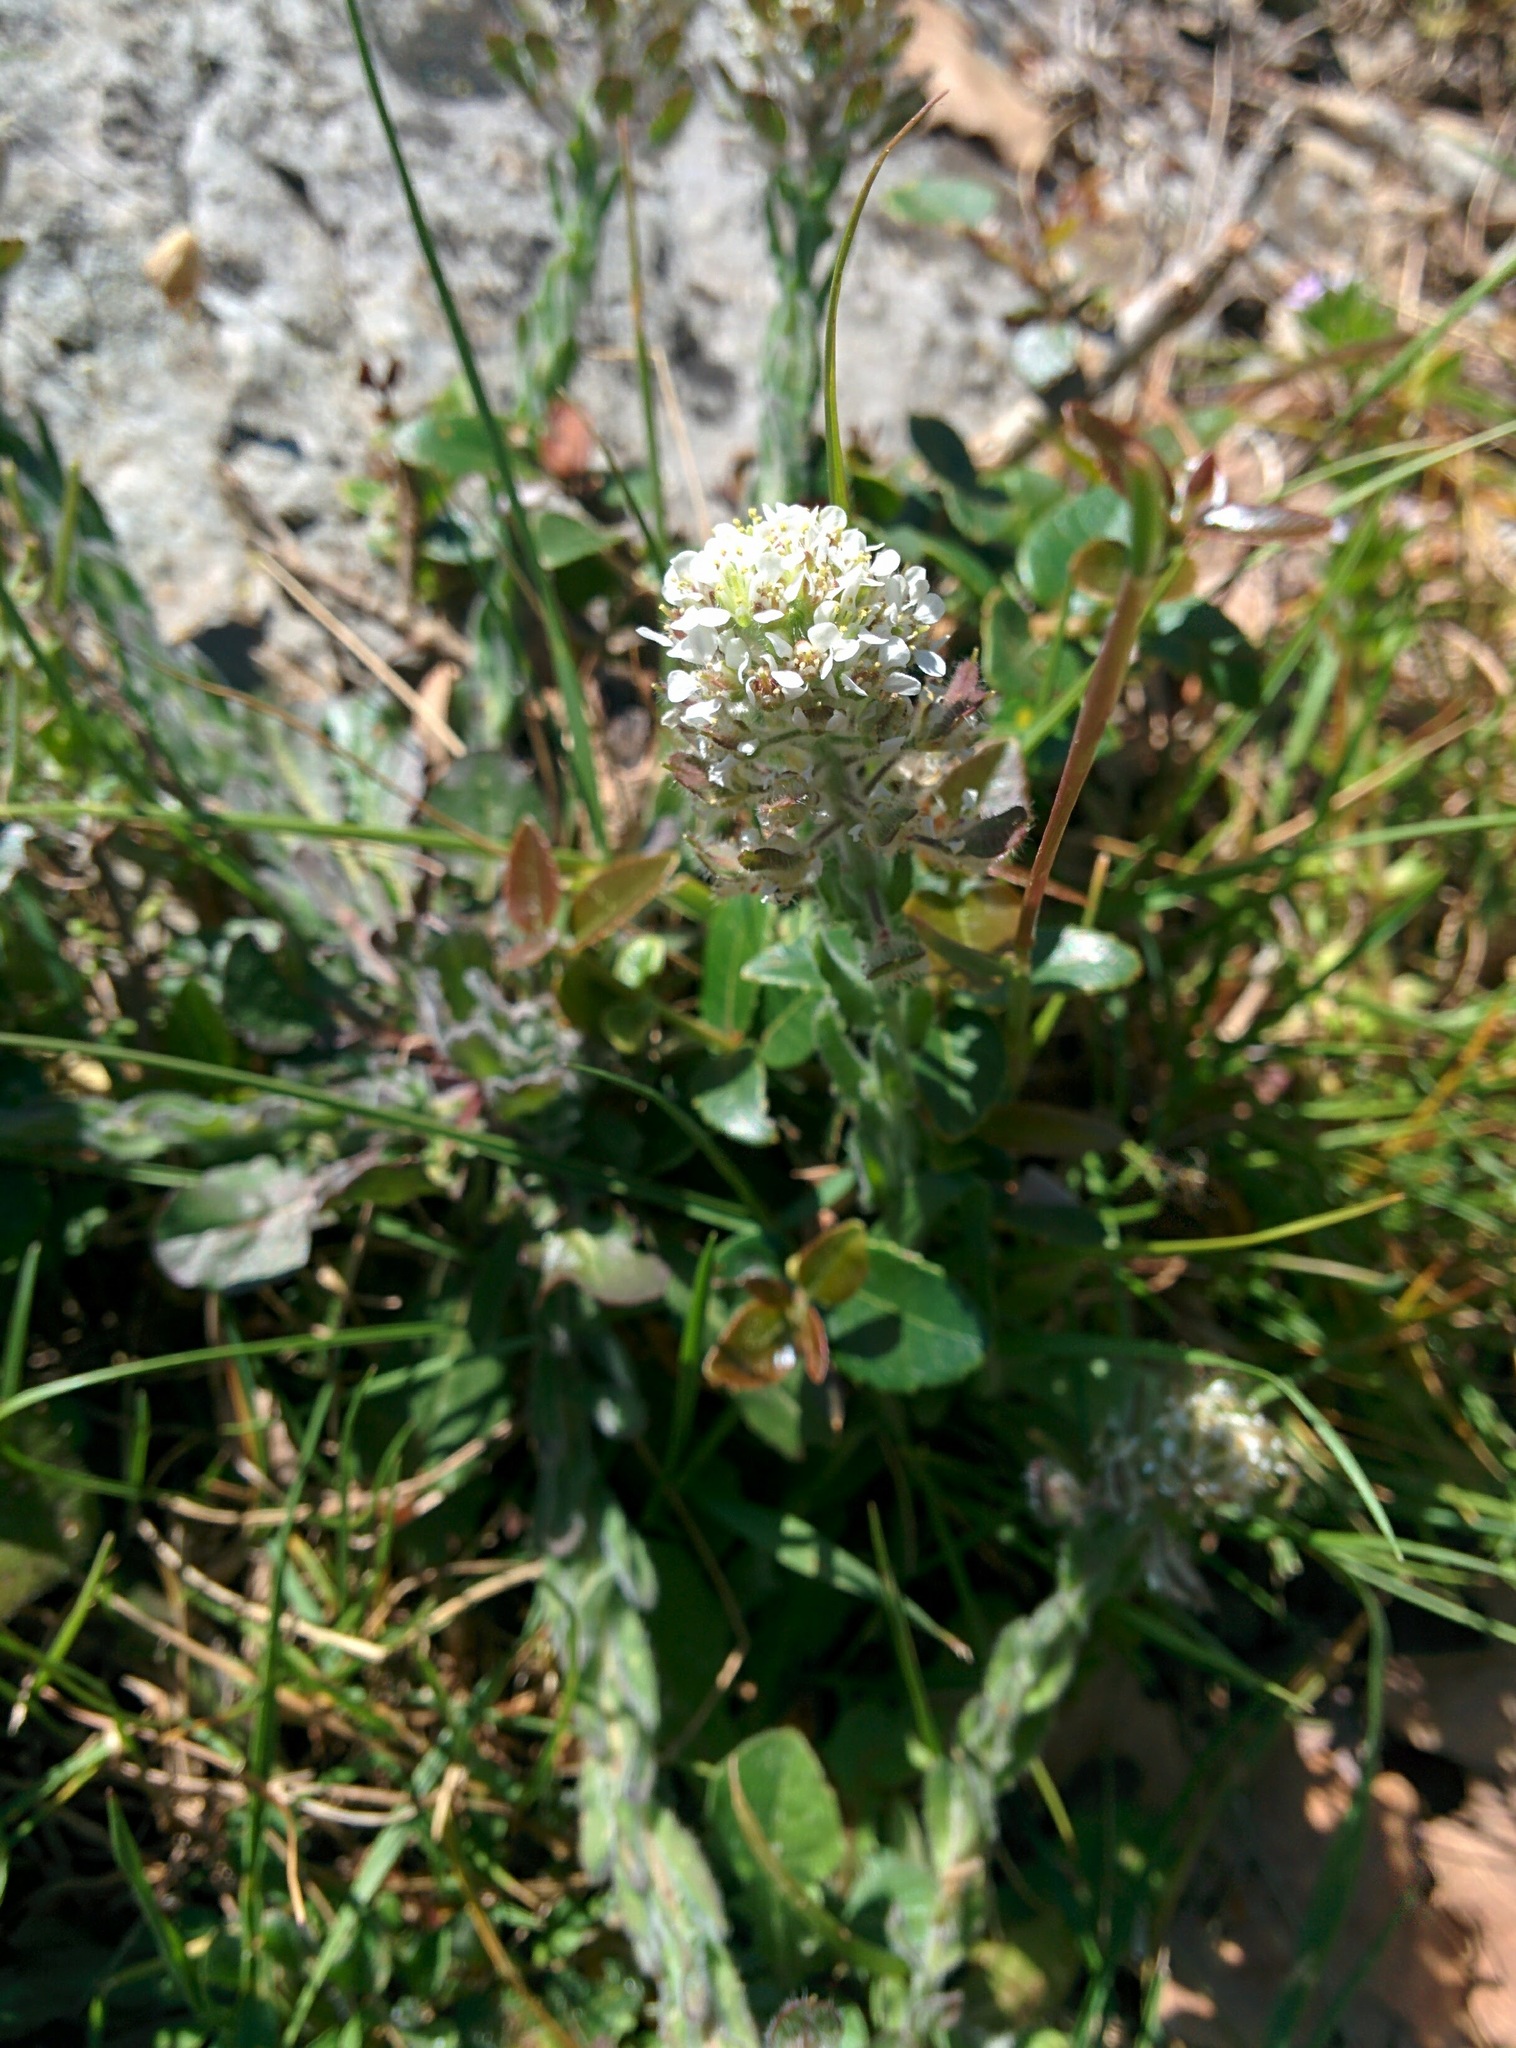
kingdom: Plantae
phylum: Tracheophyta
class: Magnoliopsida
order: Brassicales
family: Brassicaceae
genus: Lepidium
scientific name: Lepidium hirtum
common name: Mediterranean pepperweed
